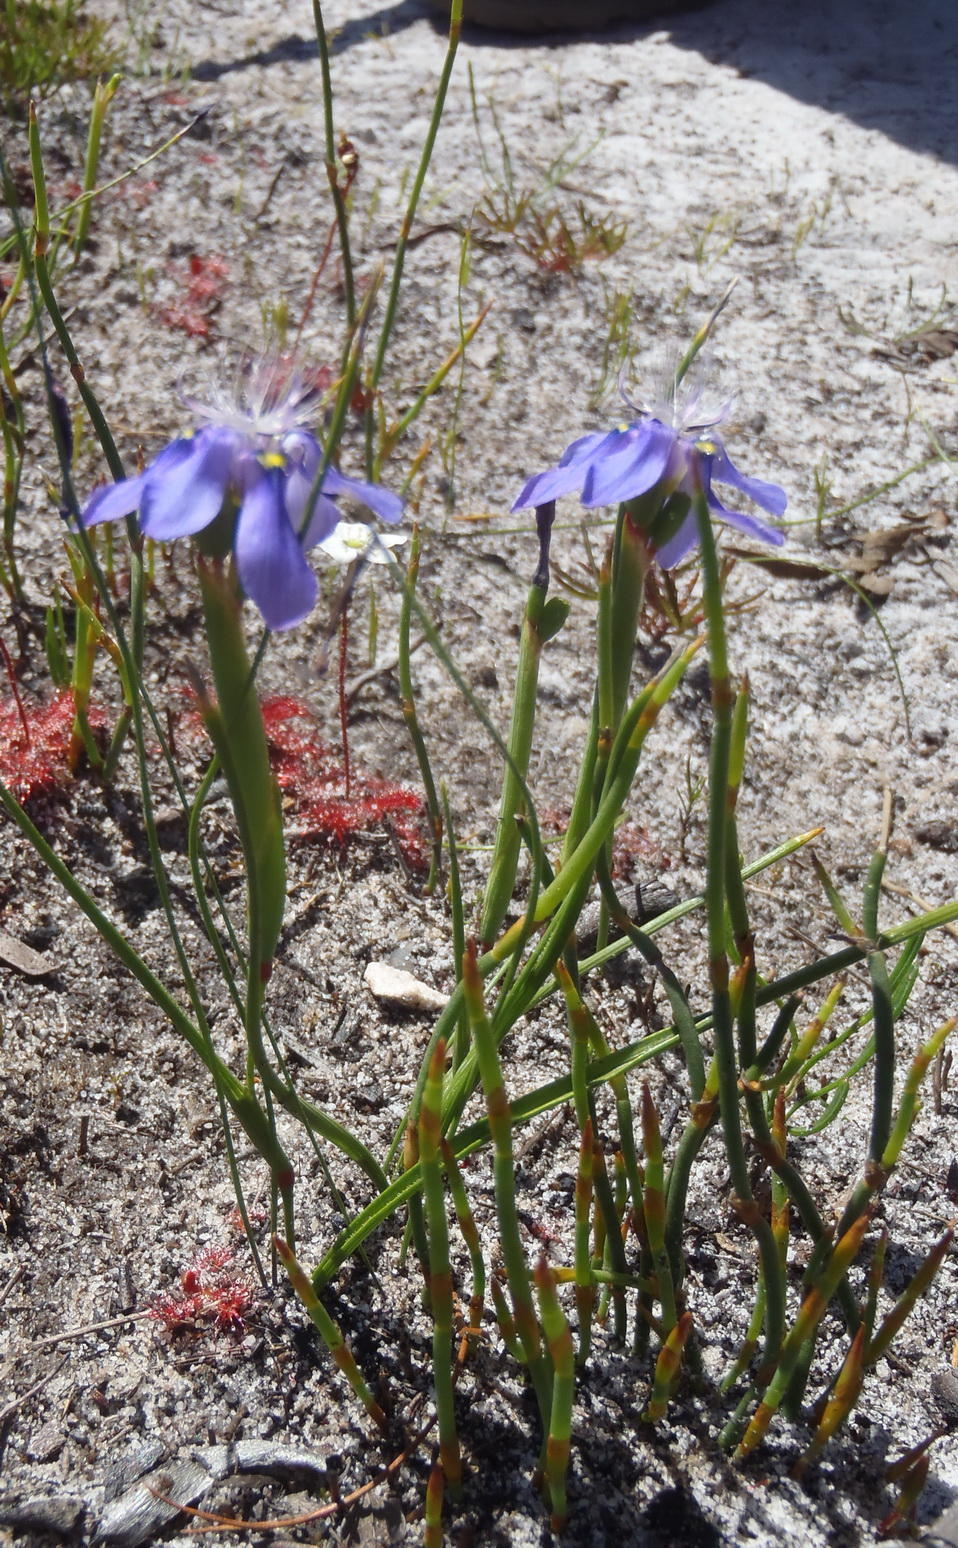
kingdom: Plantae
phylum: Tracheophyta
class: Liliopsida
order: Asparagales
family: Iridaceae
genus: Moraea
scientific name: Moraea lugubris
